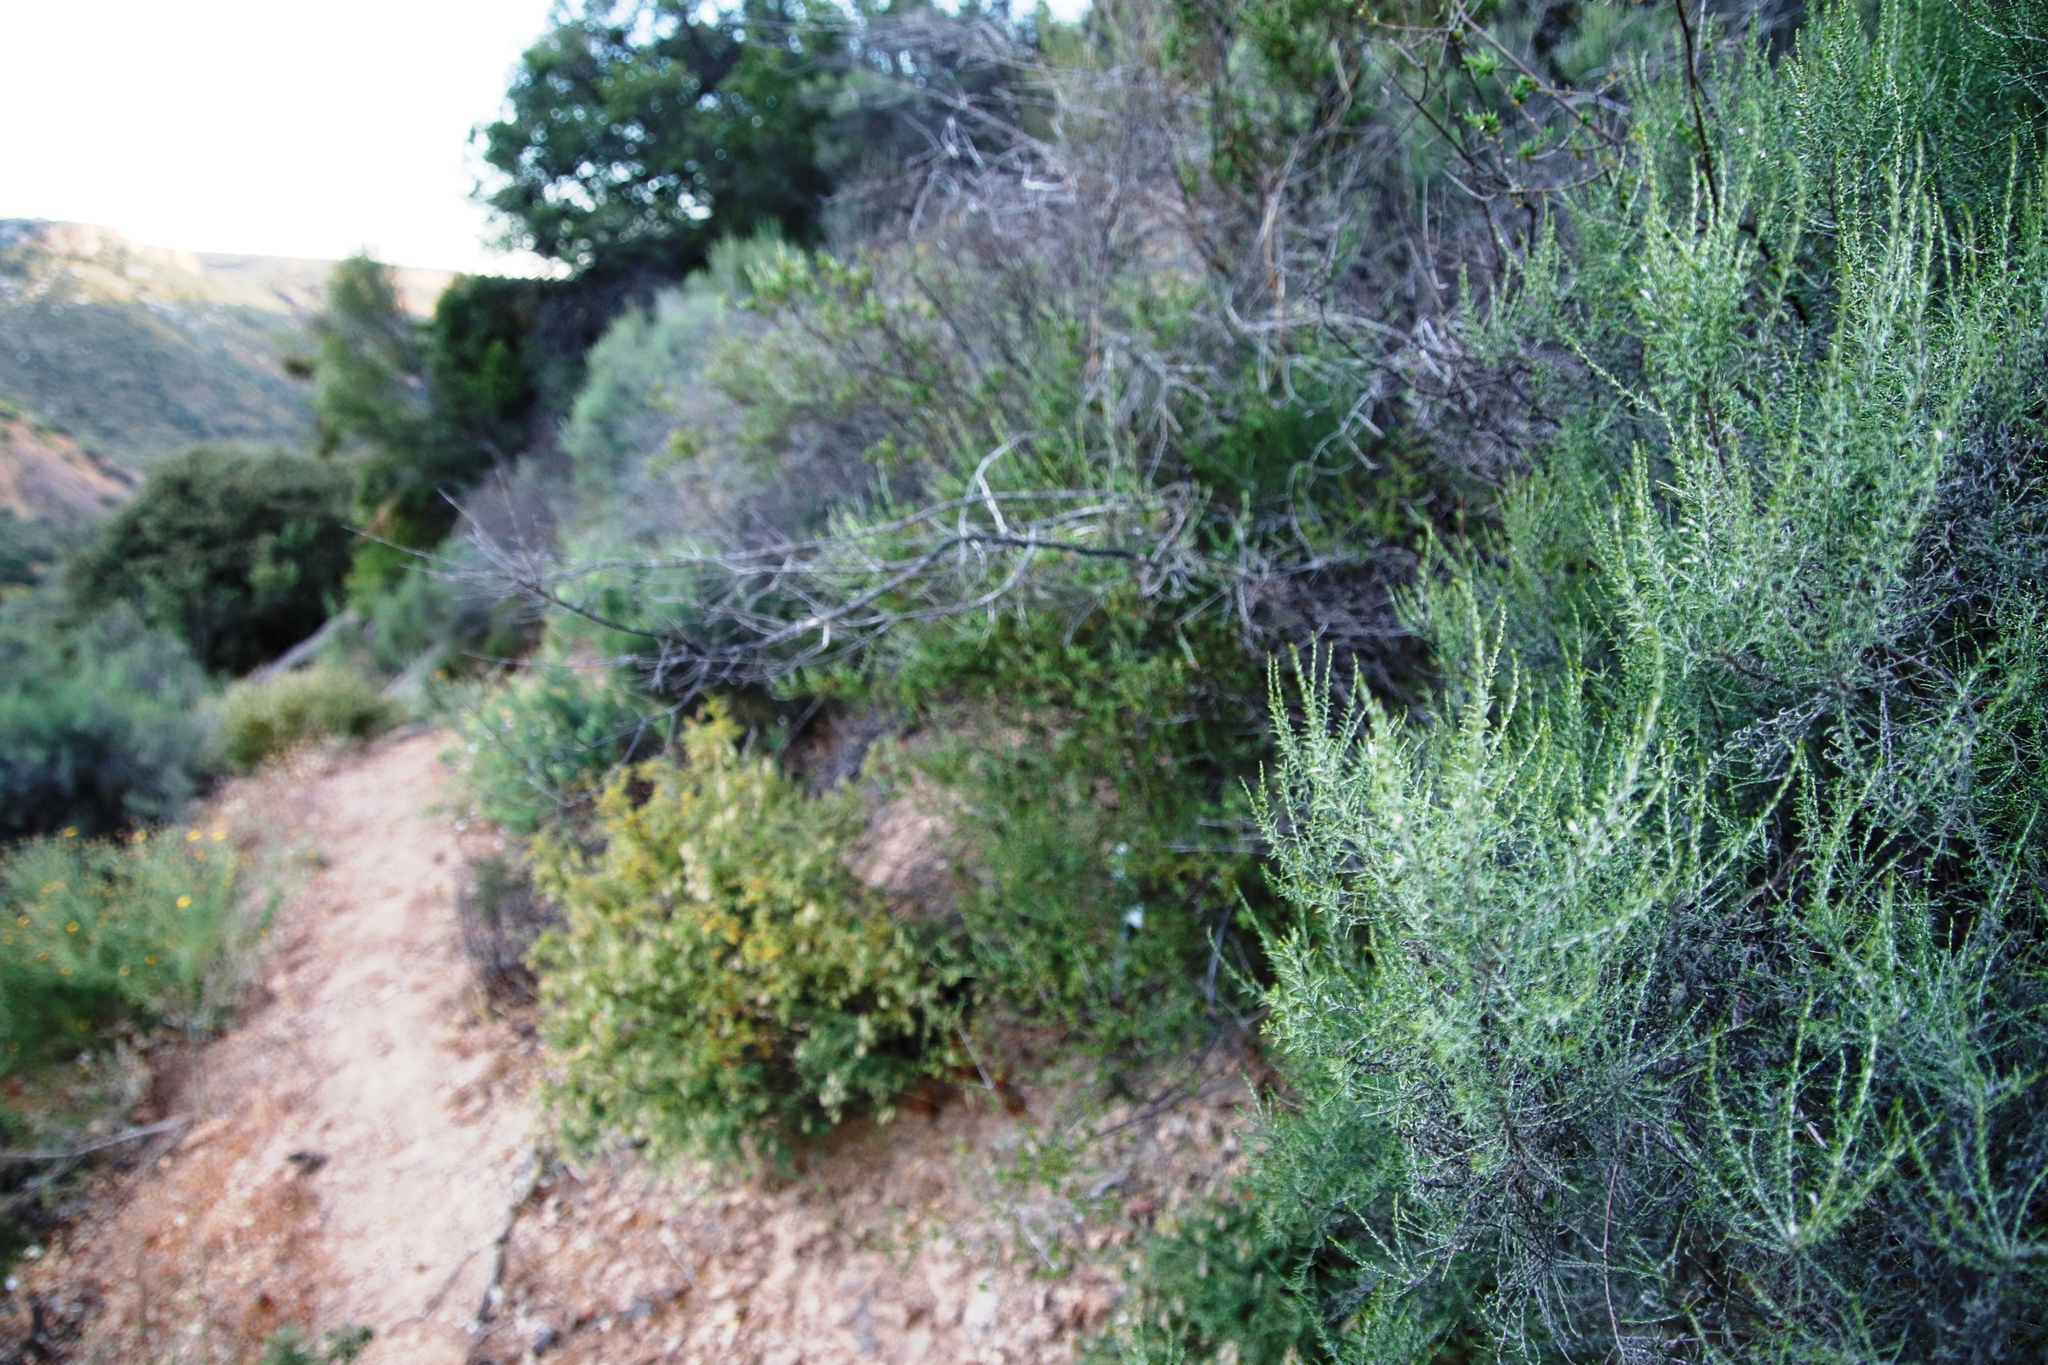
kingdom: Plantae
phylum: Tracheophyta
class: Magnoliopsida
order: Asterales
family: Asteraceae
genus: Dicerothamnus
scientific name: Dicerothamnus rhinocerotis
